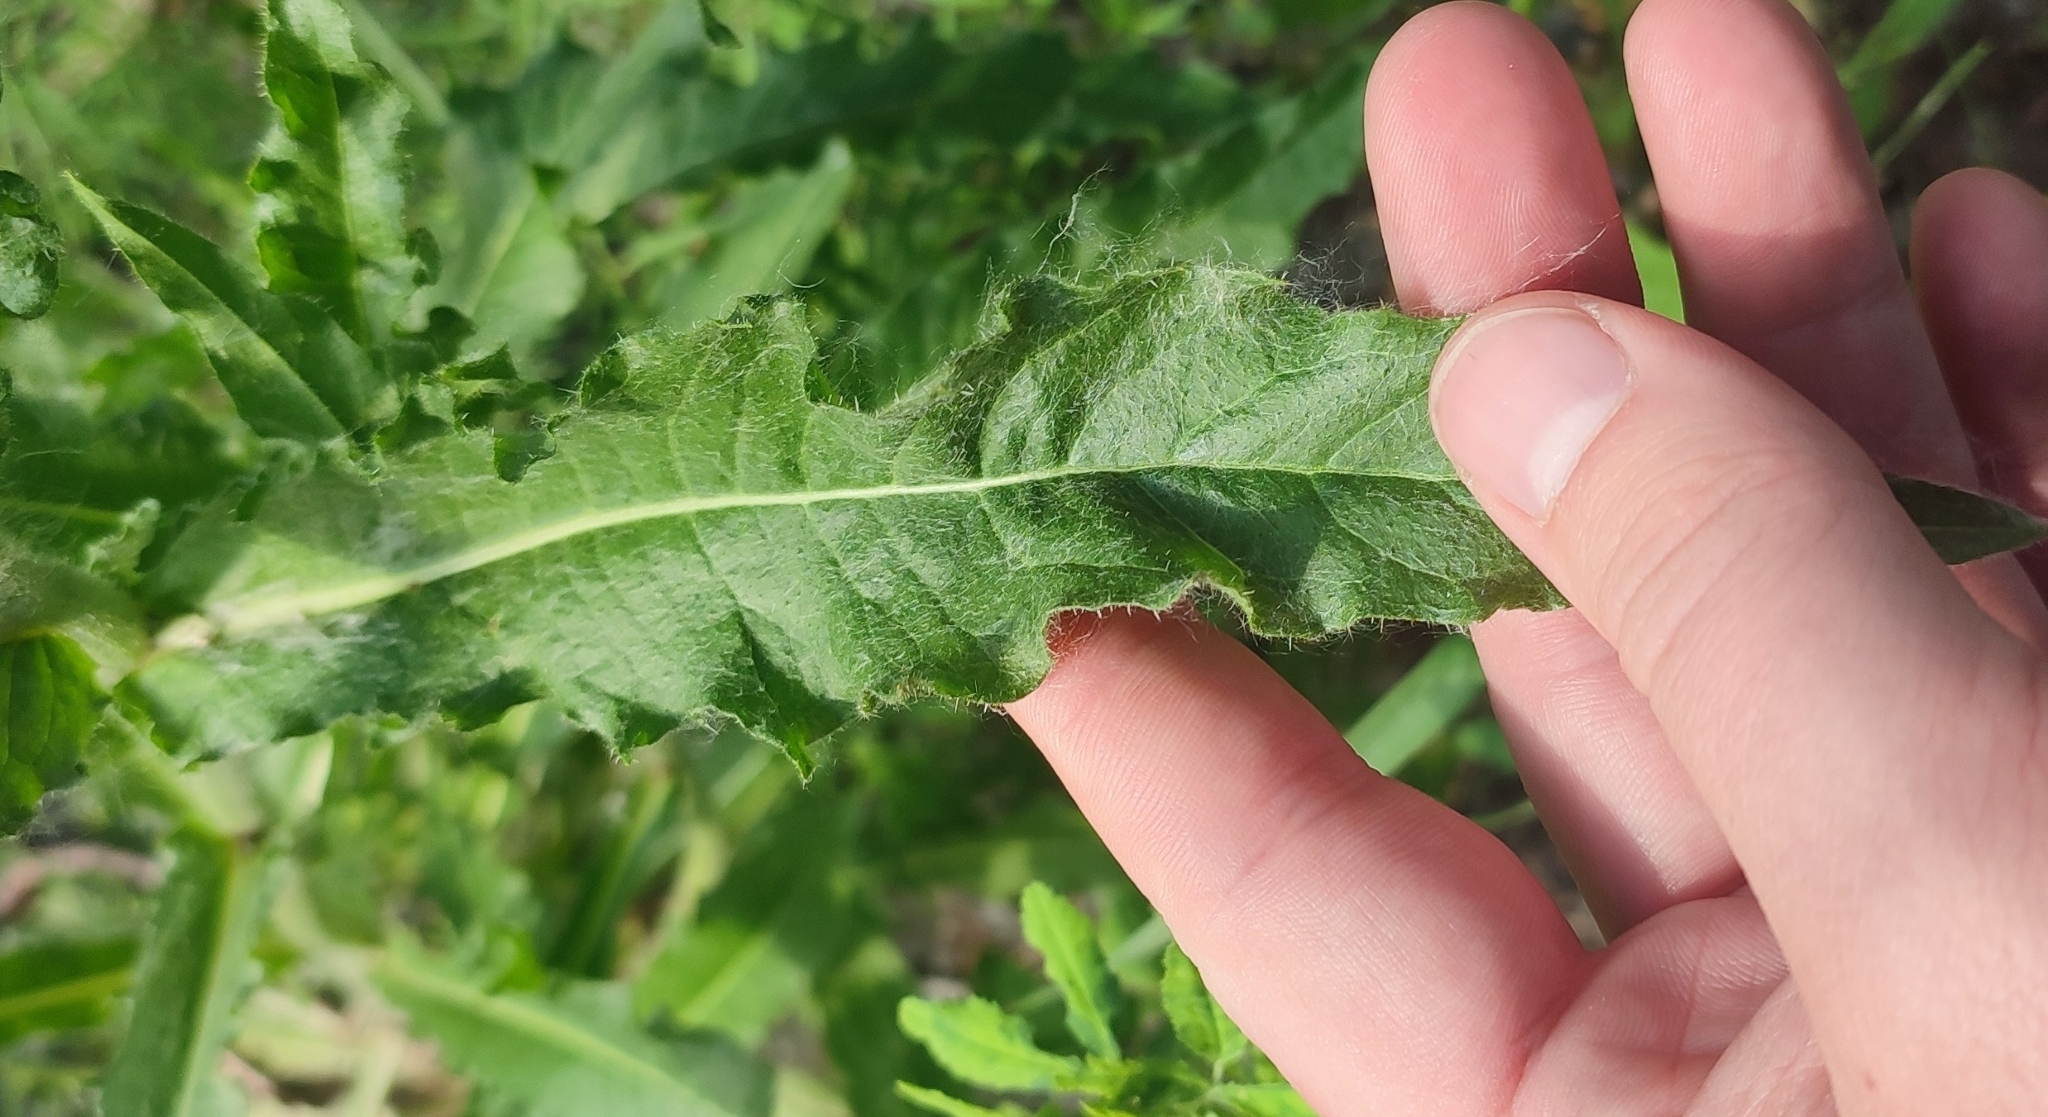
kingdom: Plantae
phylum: Tracheophyta
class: Magnoliopsida
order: Asterales
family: Asteraceae
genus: Picris
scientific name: Picris hieracioides
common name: Hawkweed oxtongue
